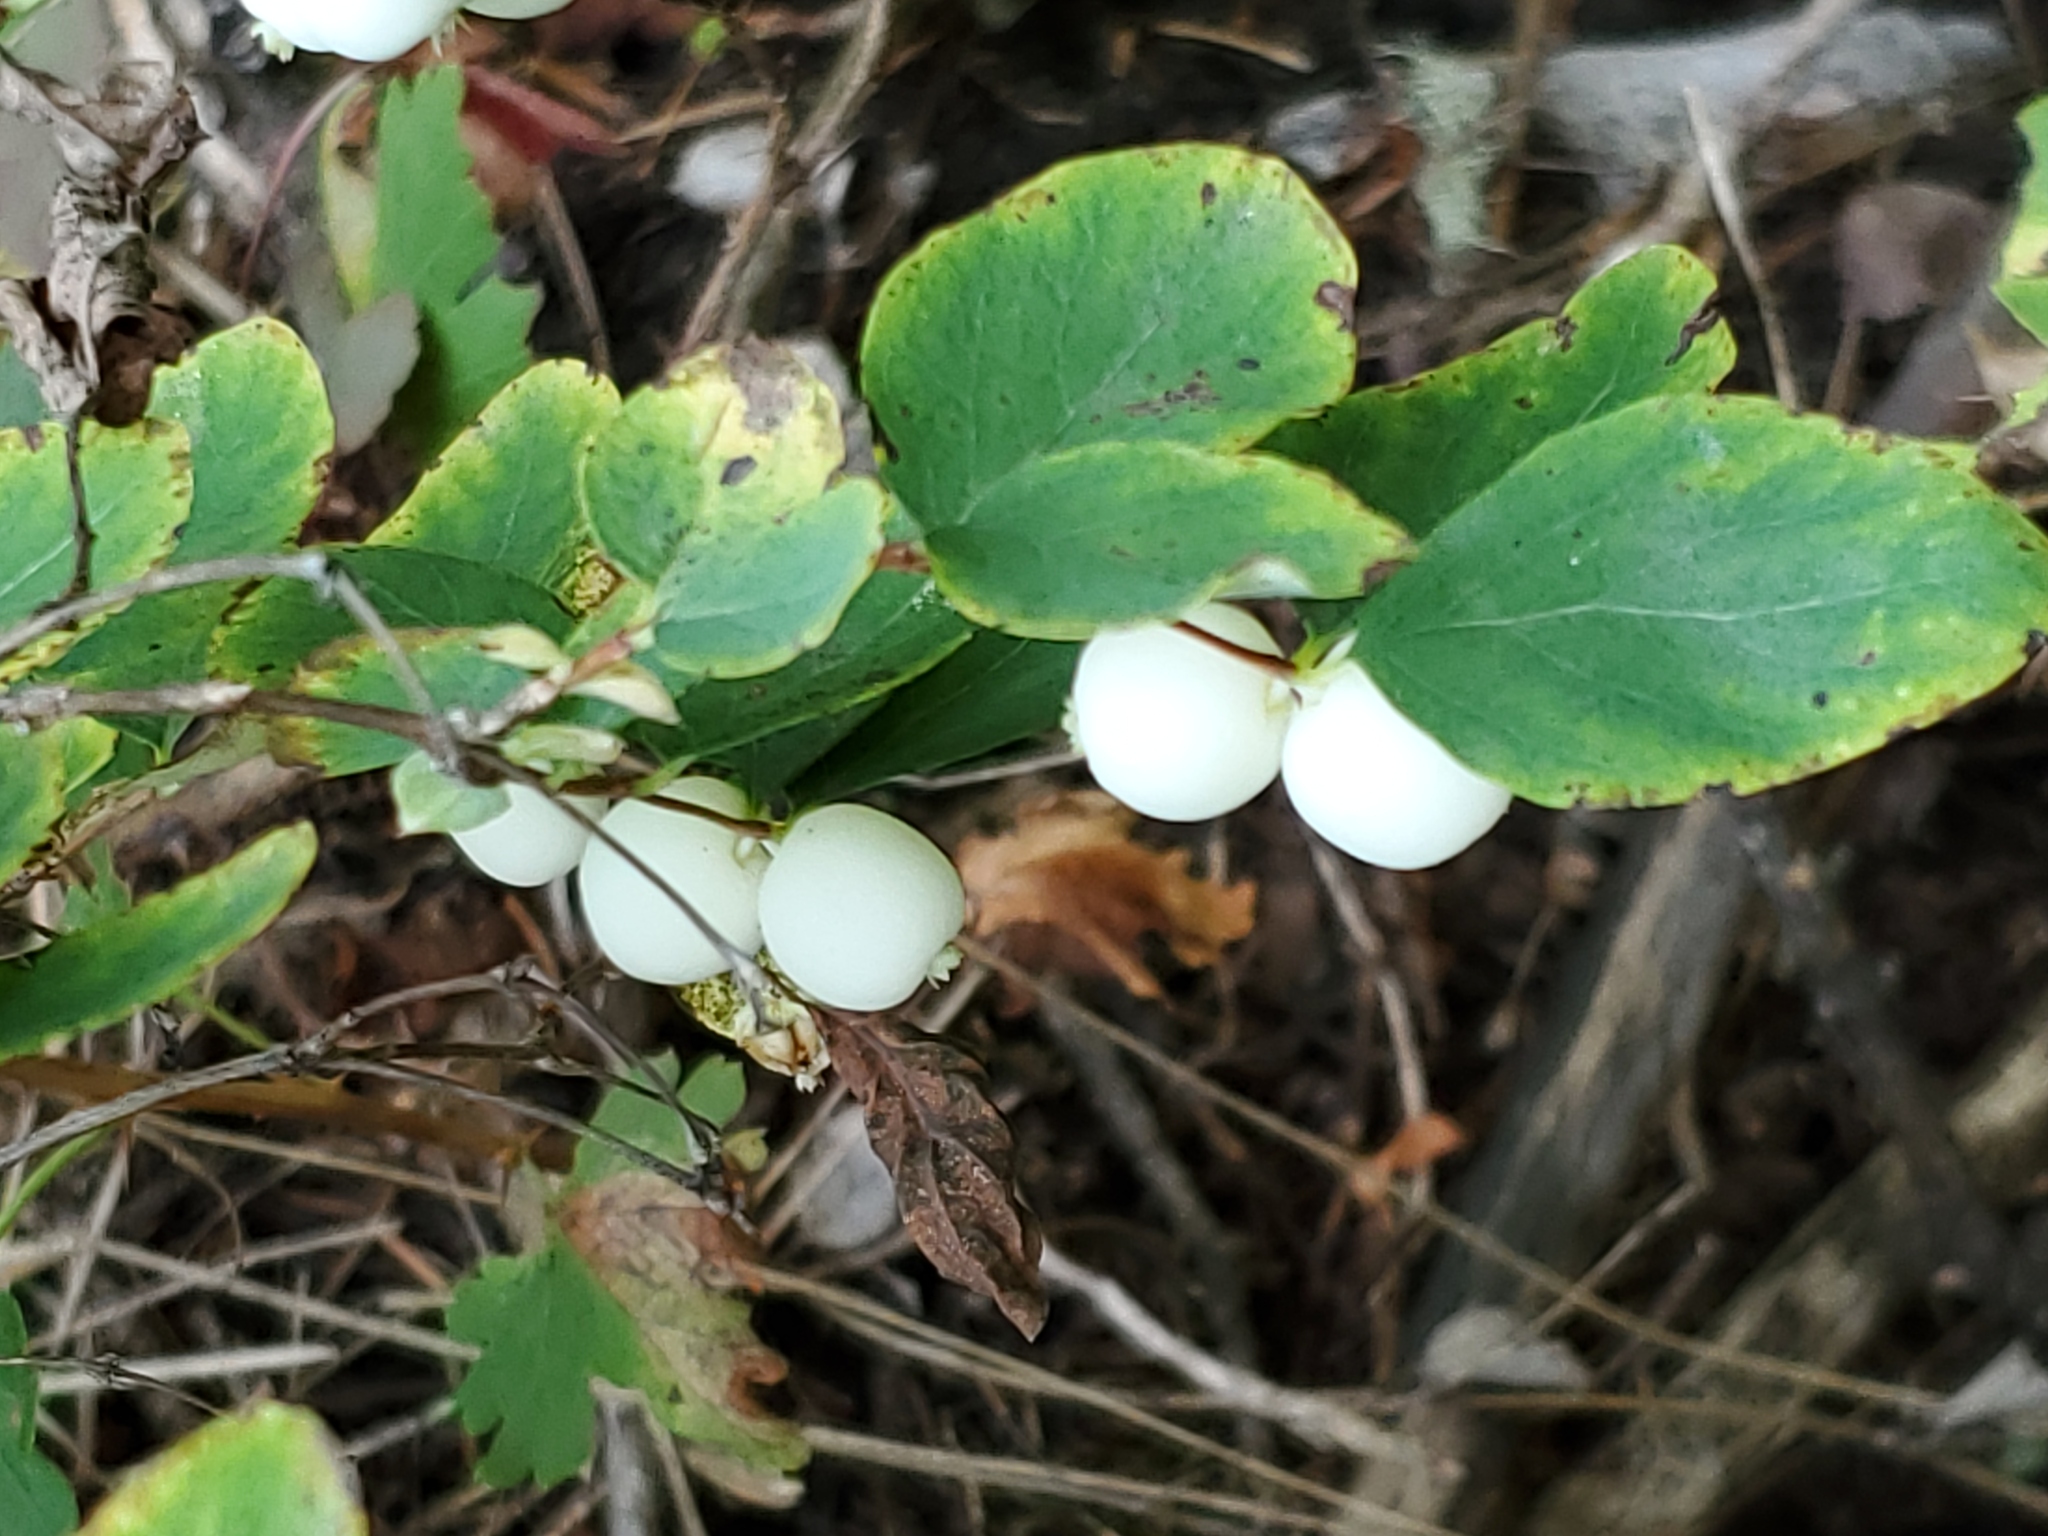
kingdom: Plantae
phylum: Tracheophyta
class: Magnoliopsida
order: Dipsacales
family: Caprifoliaceae
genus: Symphoricarpos
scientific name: Symphoricarpos albus
